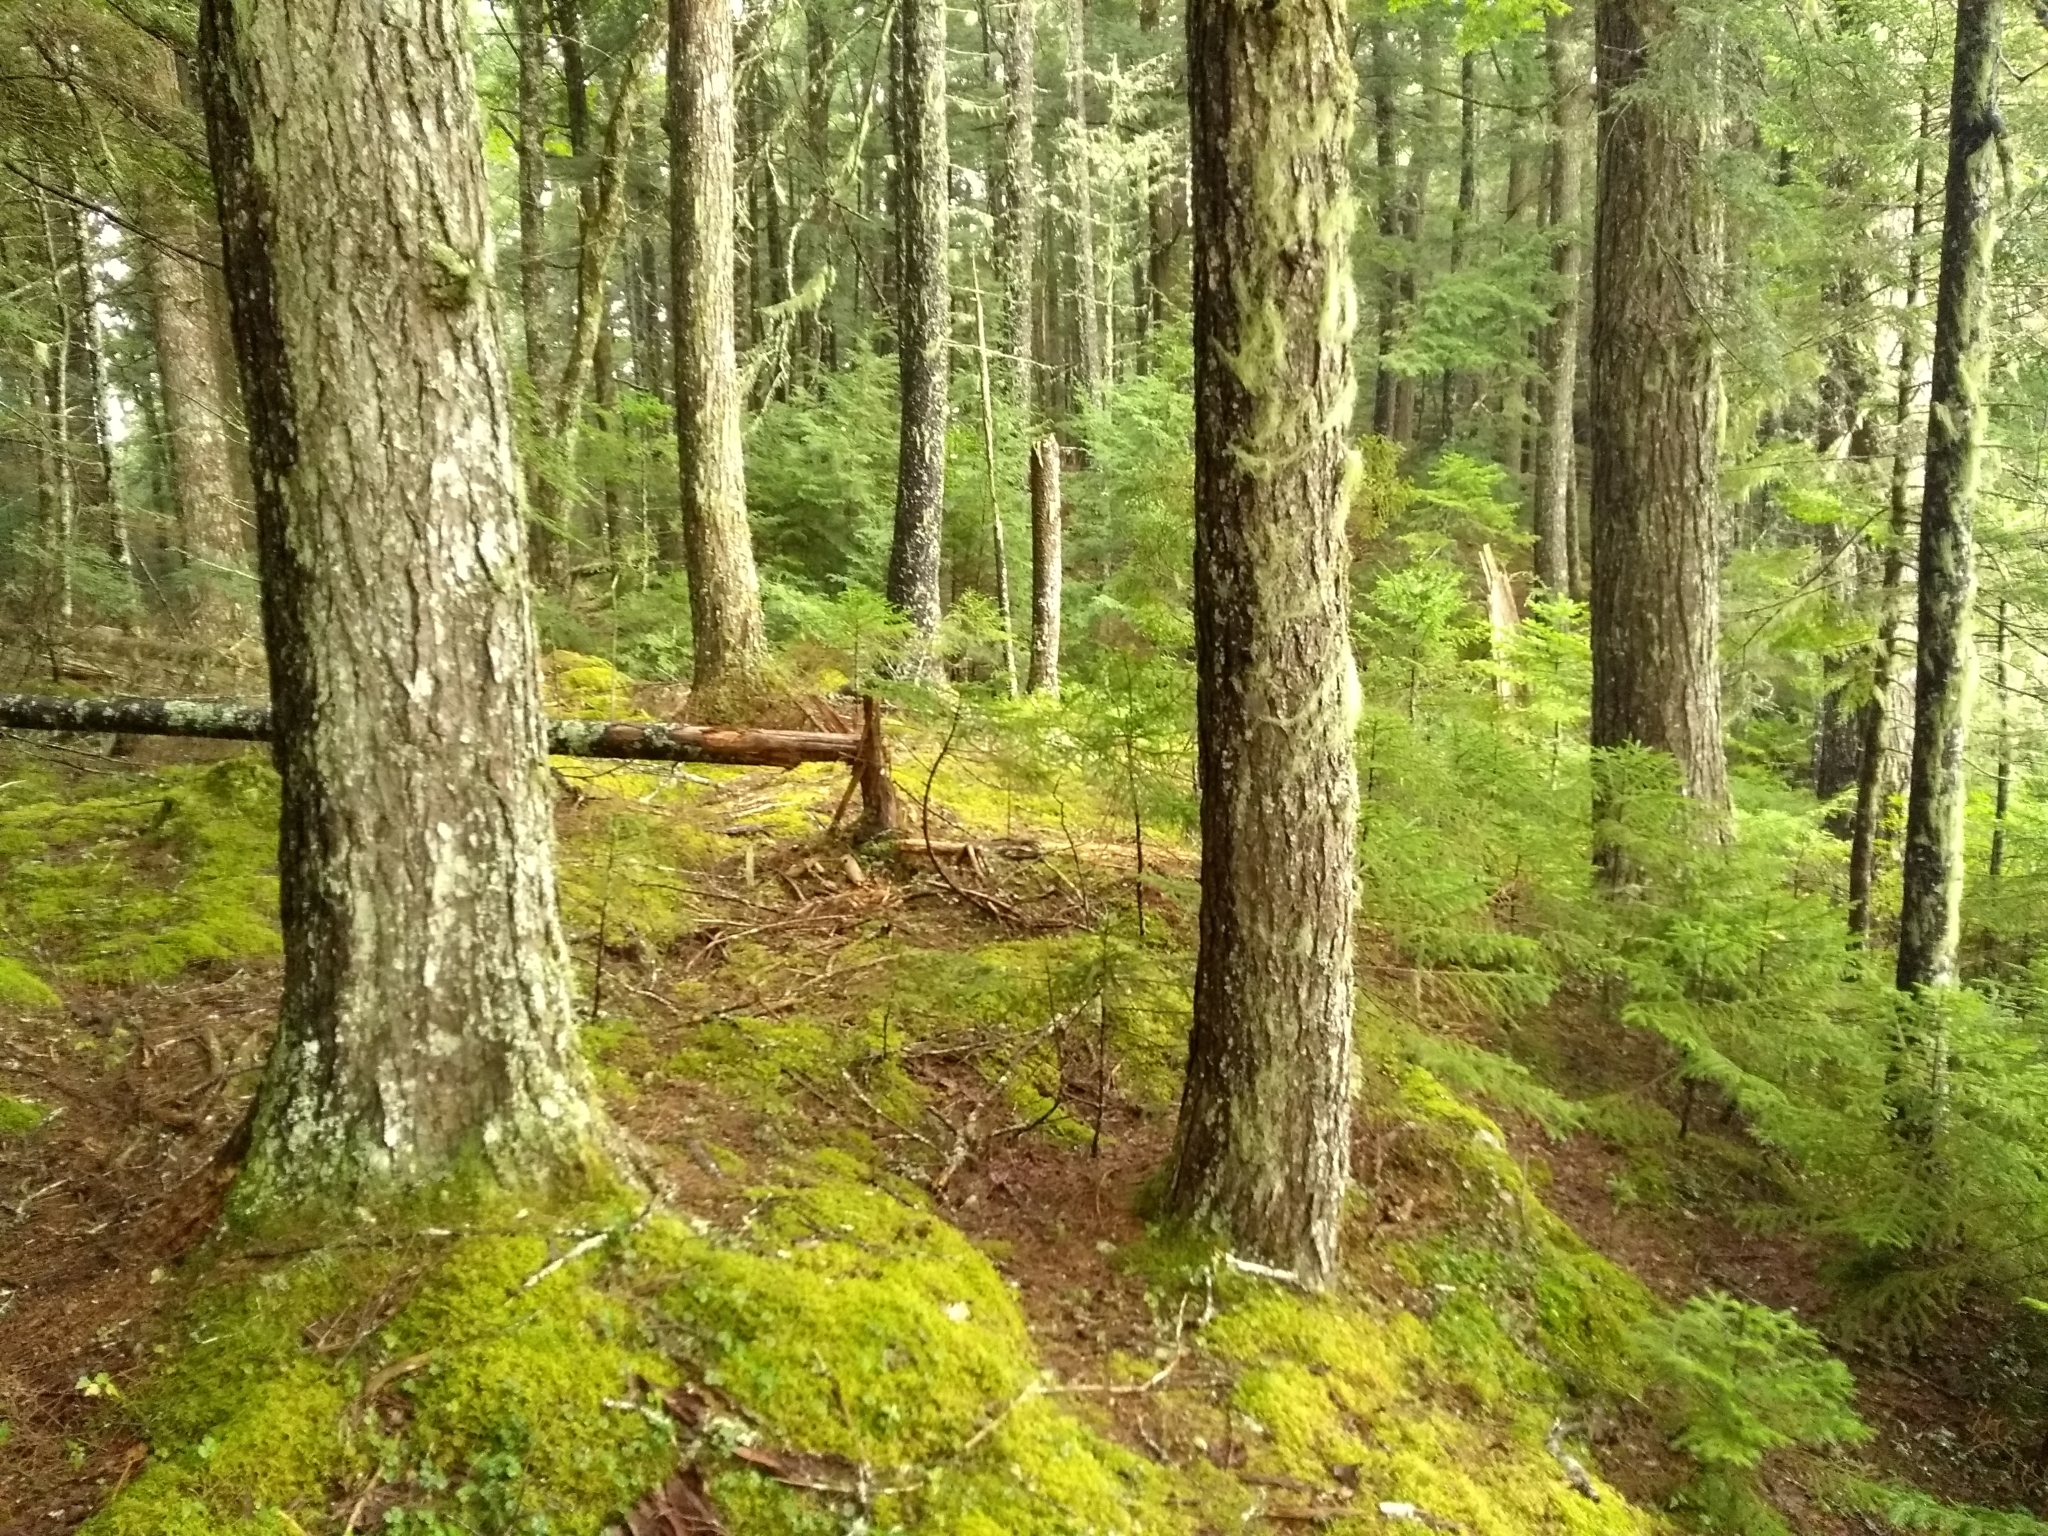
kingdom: Plantae
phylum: Tracheophyta
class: Pinopsida
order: Pinales
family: Pinaceae
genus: Tsuga
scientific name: Tsuga canadensis
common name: Eastern hemlock
